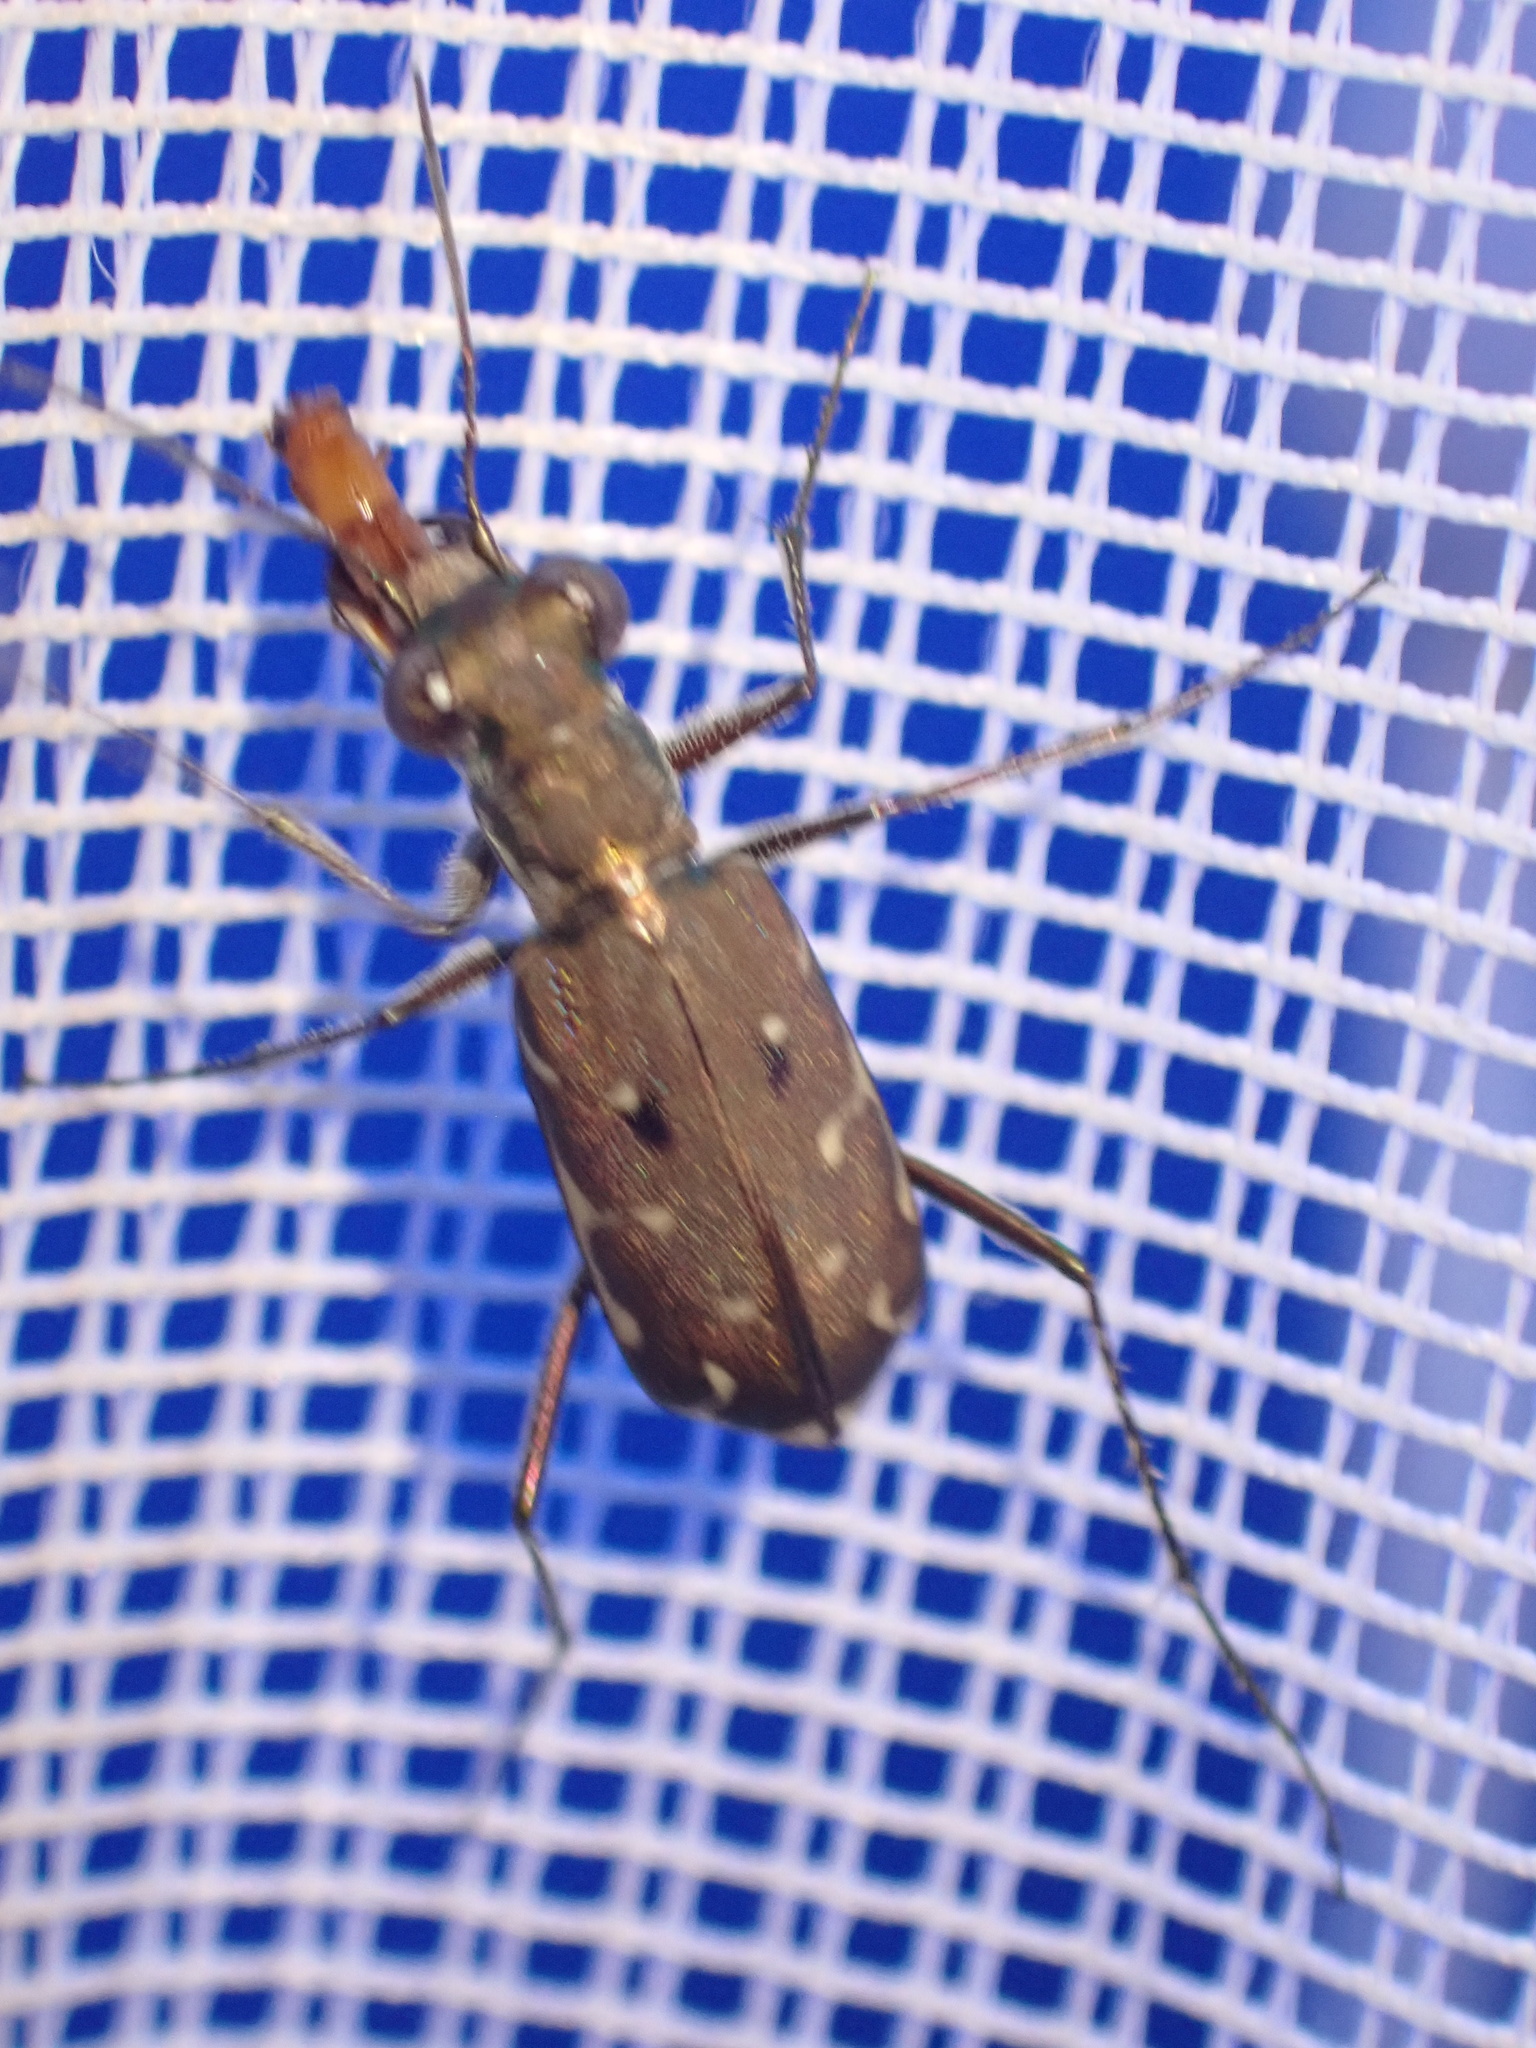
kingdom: Animalia
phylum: Arthropoda
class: Insecta
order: Coleoptera
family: Carabidae
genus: Myriochila
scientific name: Myriochila melancholica
